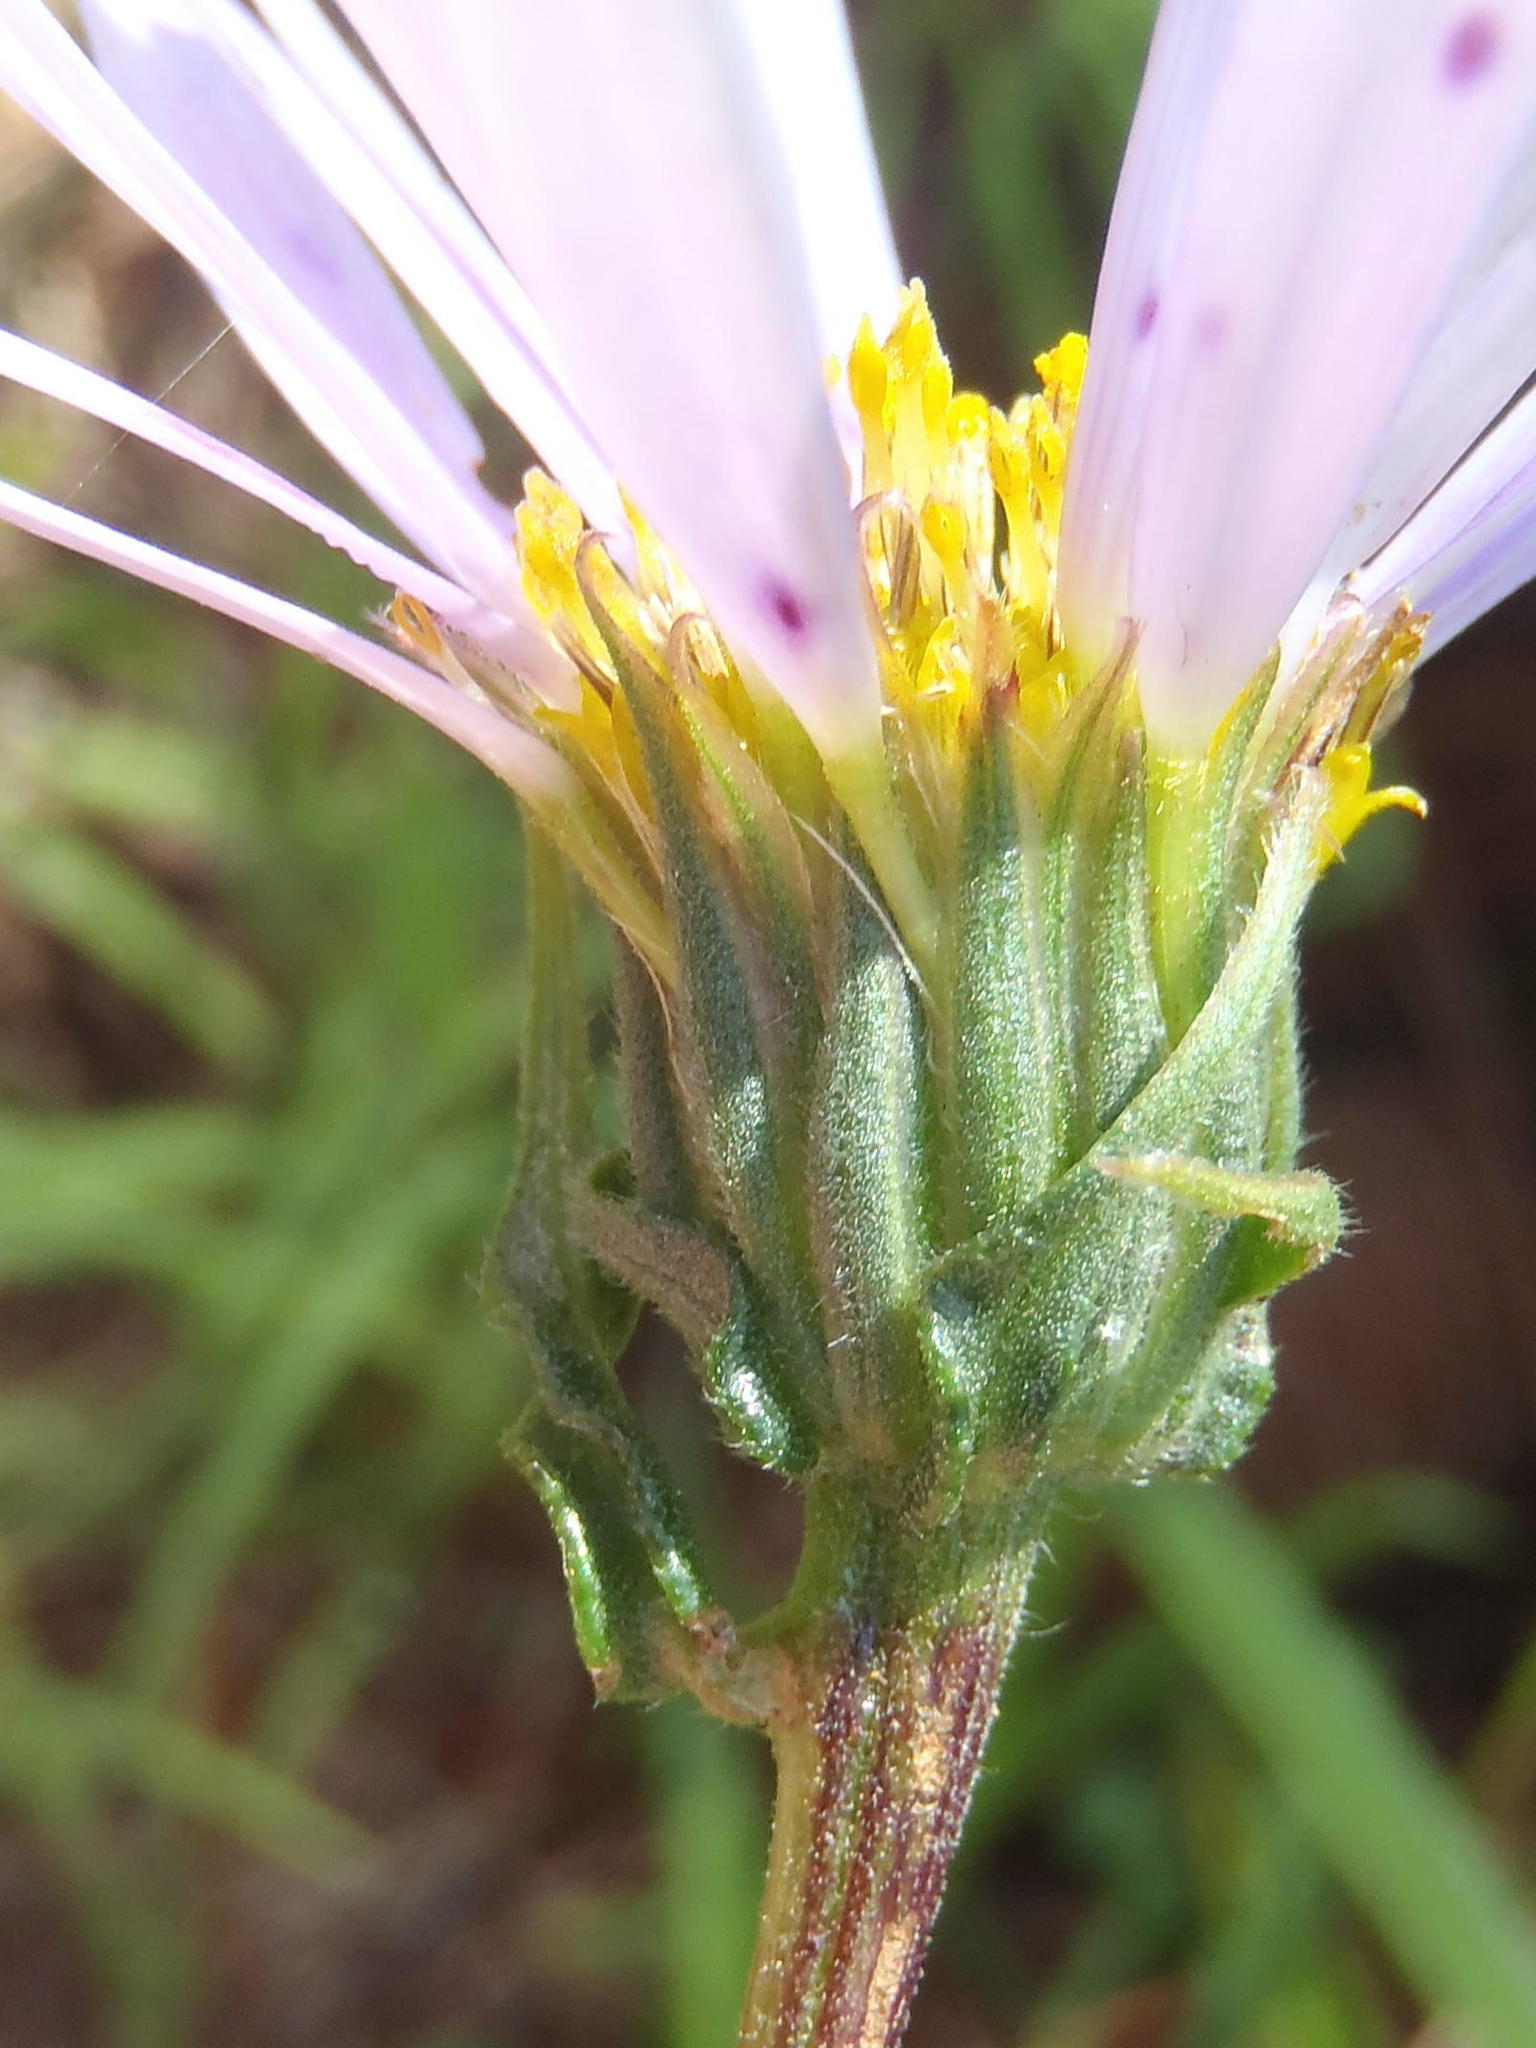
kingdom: Plantae
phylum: Tracheophyta
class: Magnoliopsida
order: Asterales
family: Asteraceae
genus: Afroaster
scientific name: Afroaster hispidus
